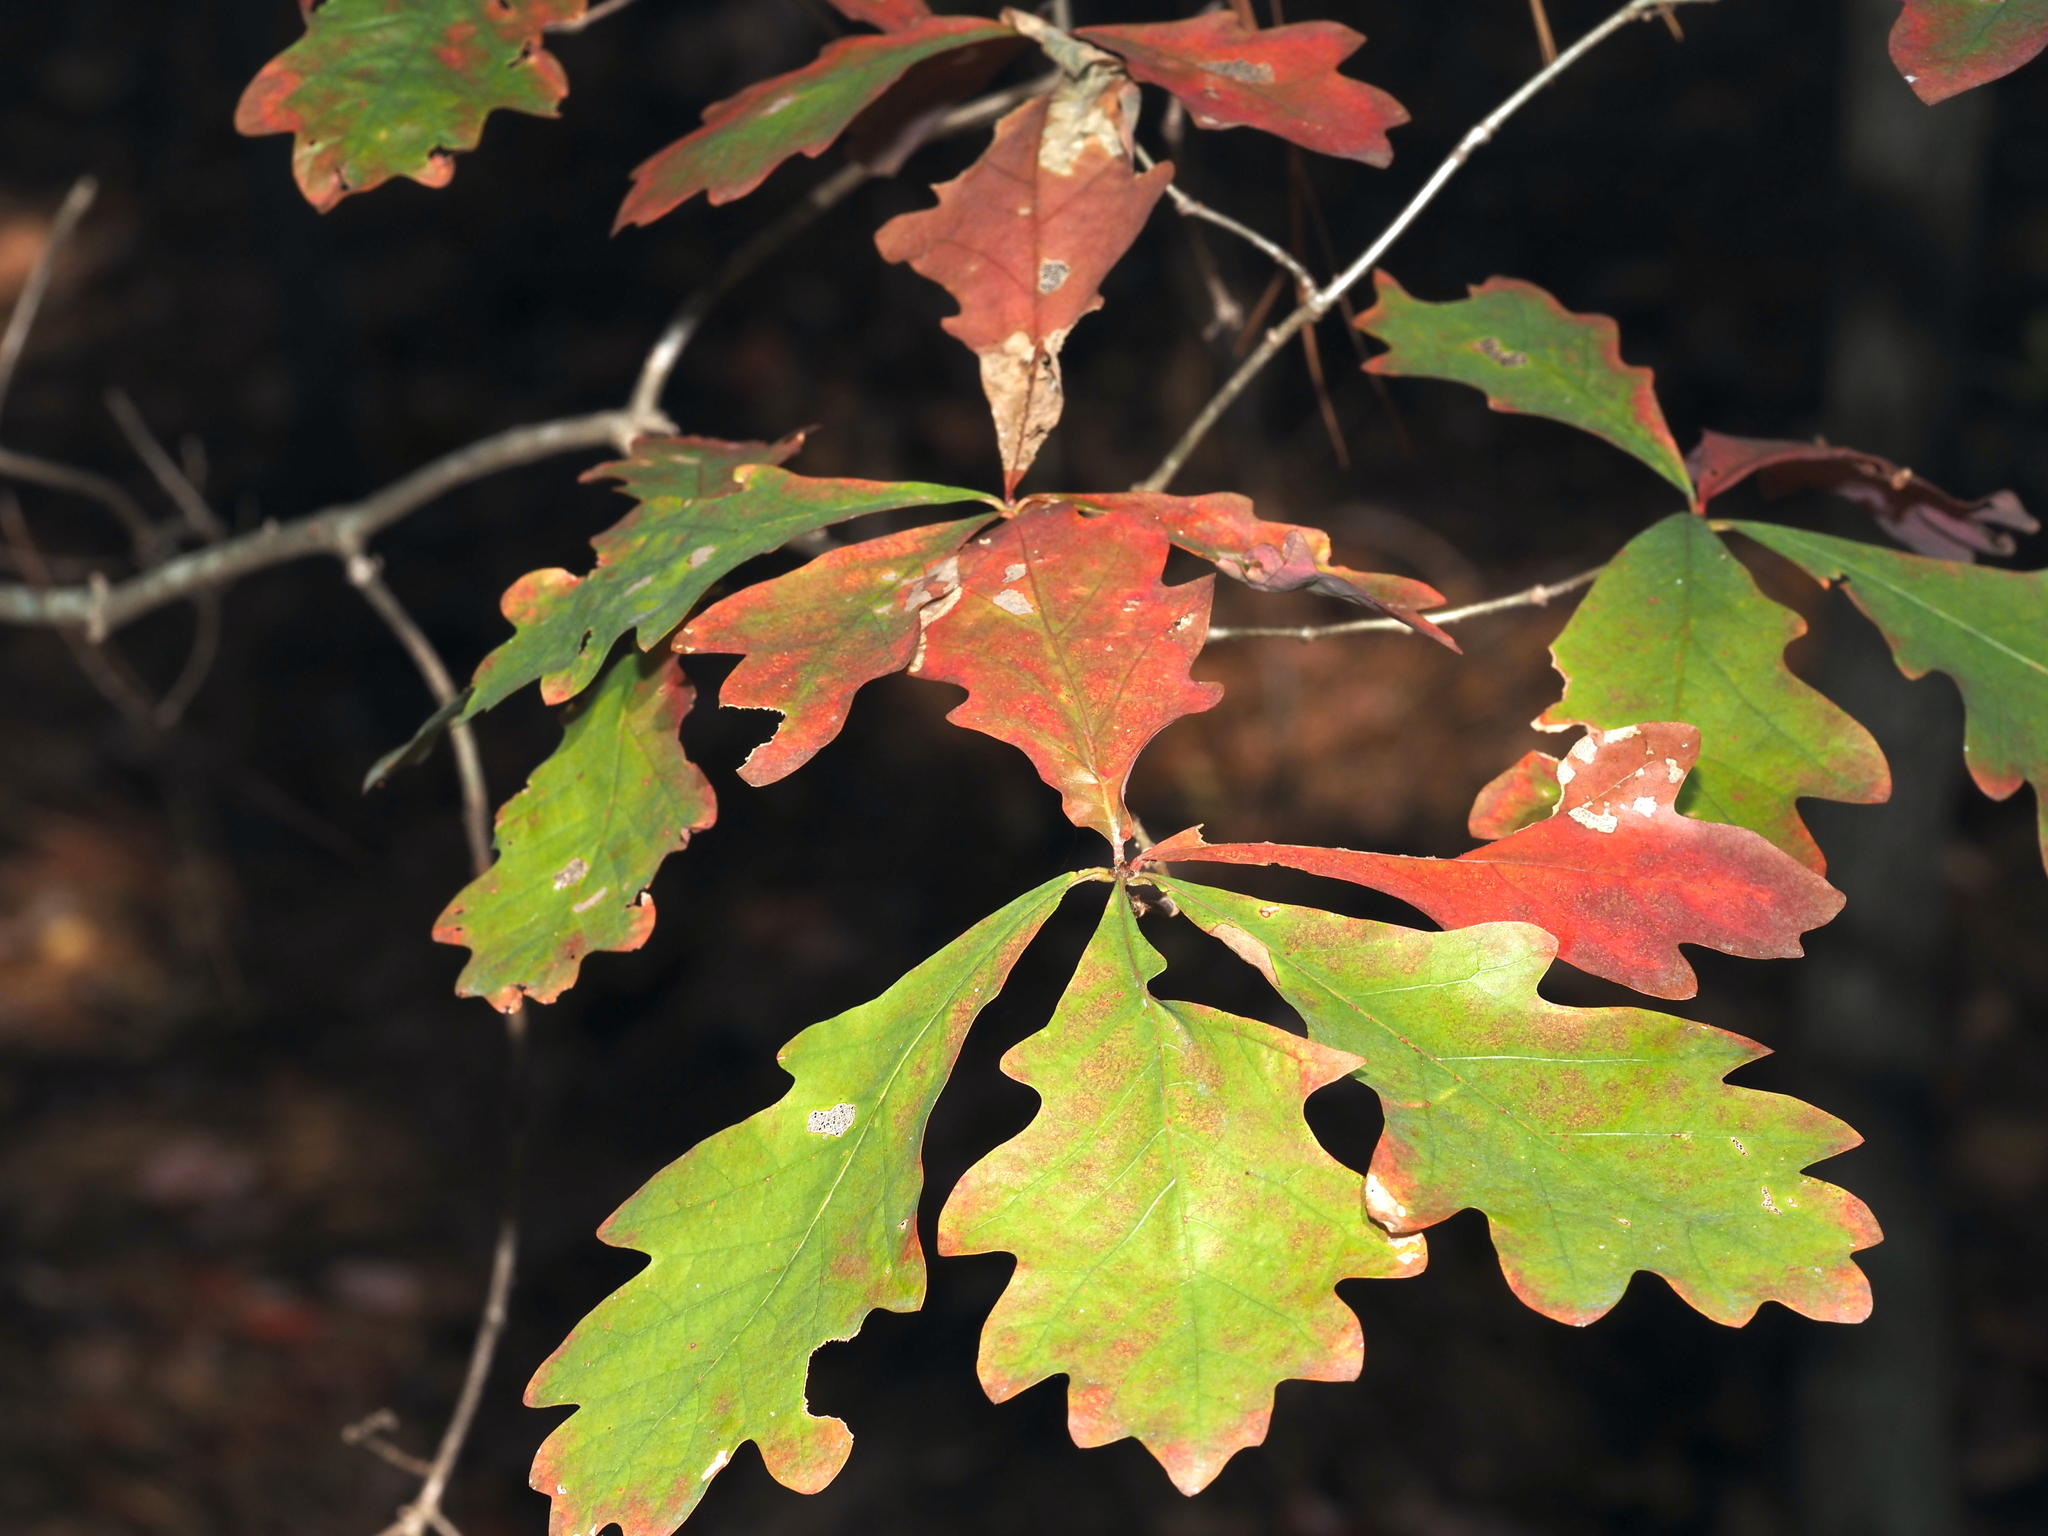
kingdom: Plantae
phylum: Tracheophyta
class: Magnoliopsida
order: Fagales
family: Fagaceae
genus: Quercus
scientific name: Quercus alba
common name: White oak
